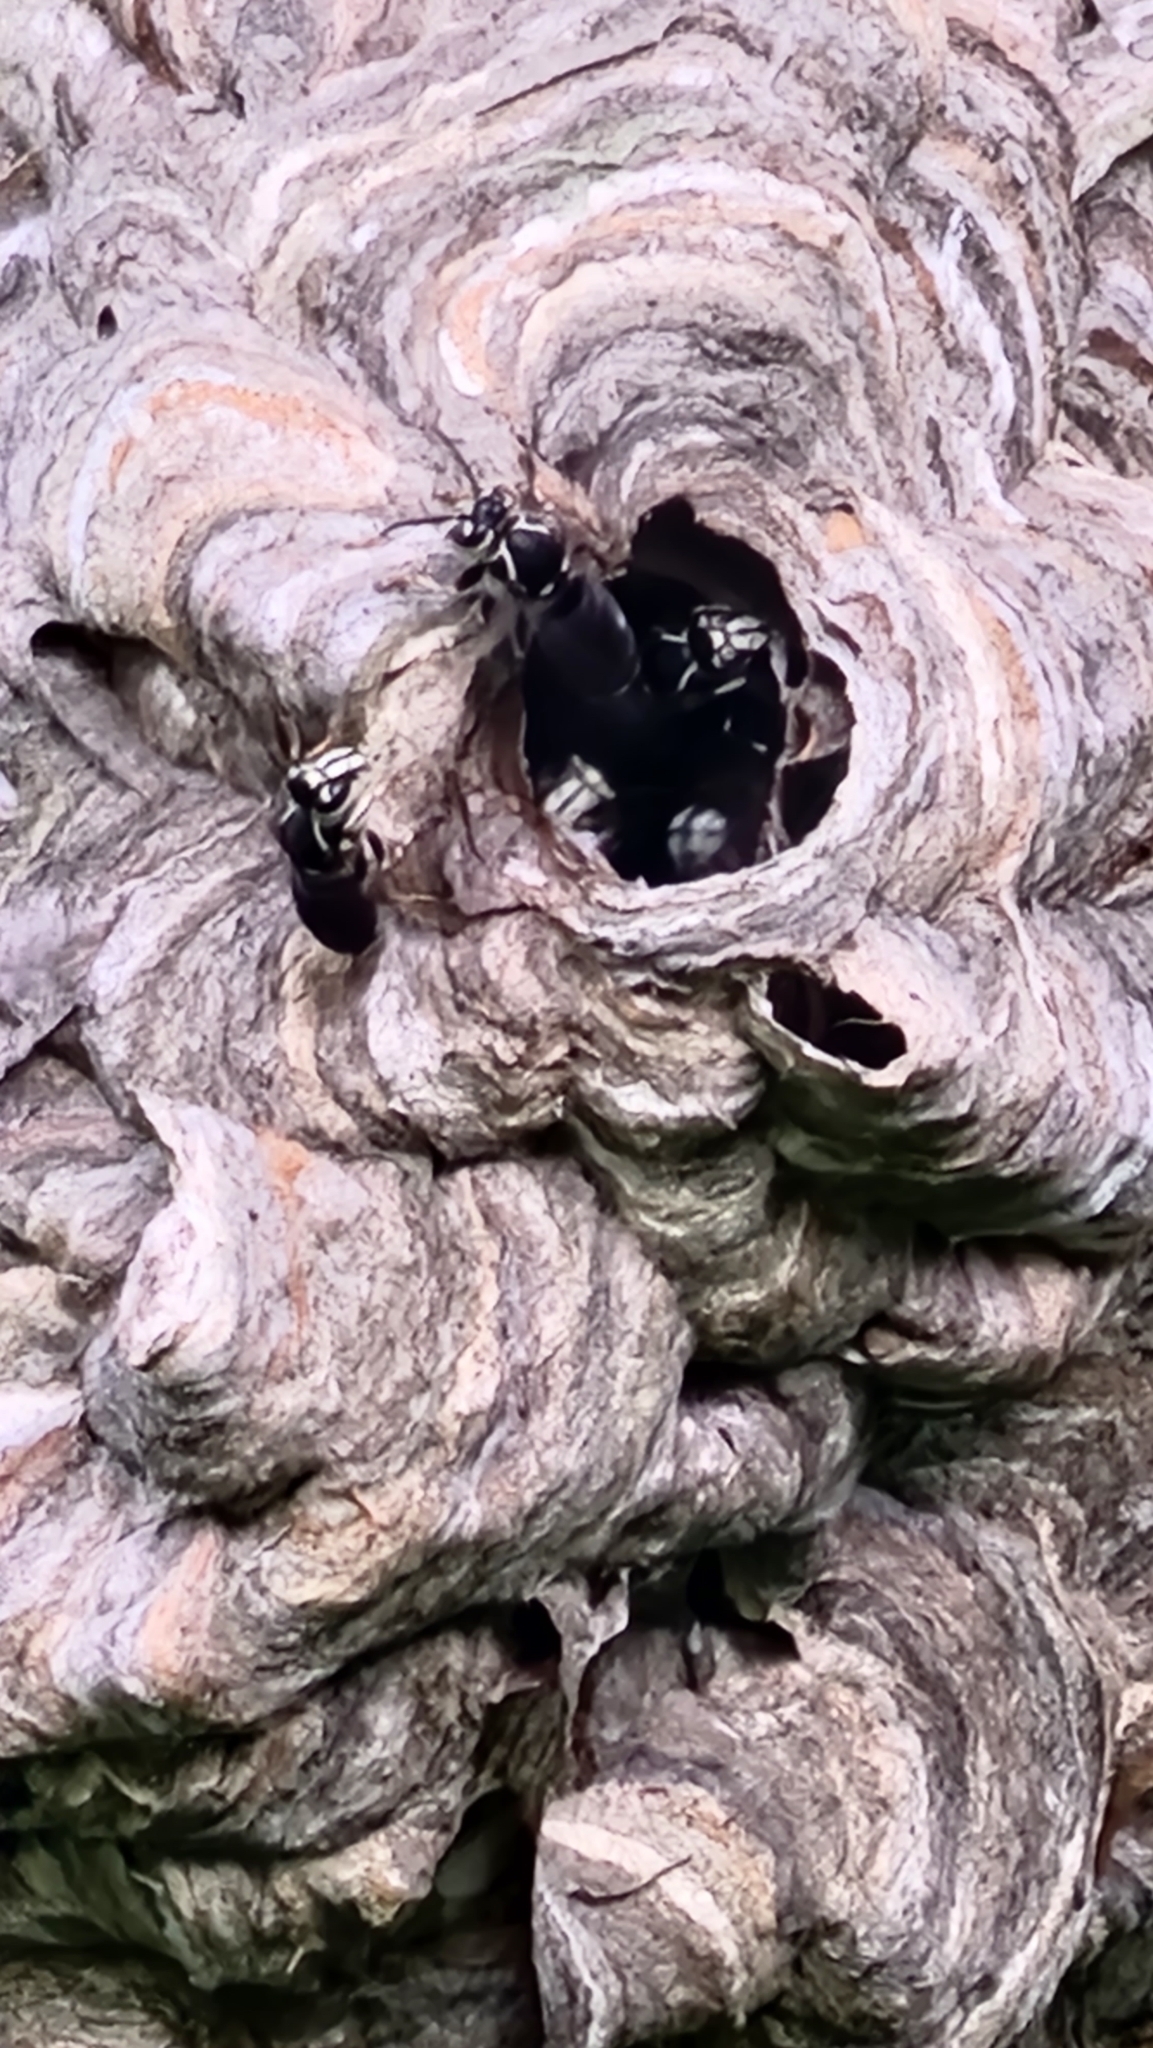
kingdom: Animalia
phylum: Arthropoda
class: Insecta
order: Hymenoptera
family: Vespidae
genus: Dolichovespula
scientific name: Dolichovespula maculata
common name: Bald-faced hornet
